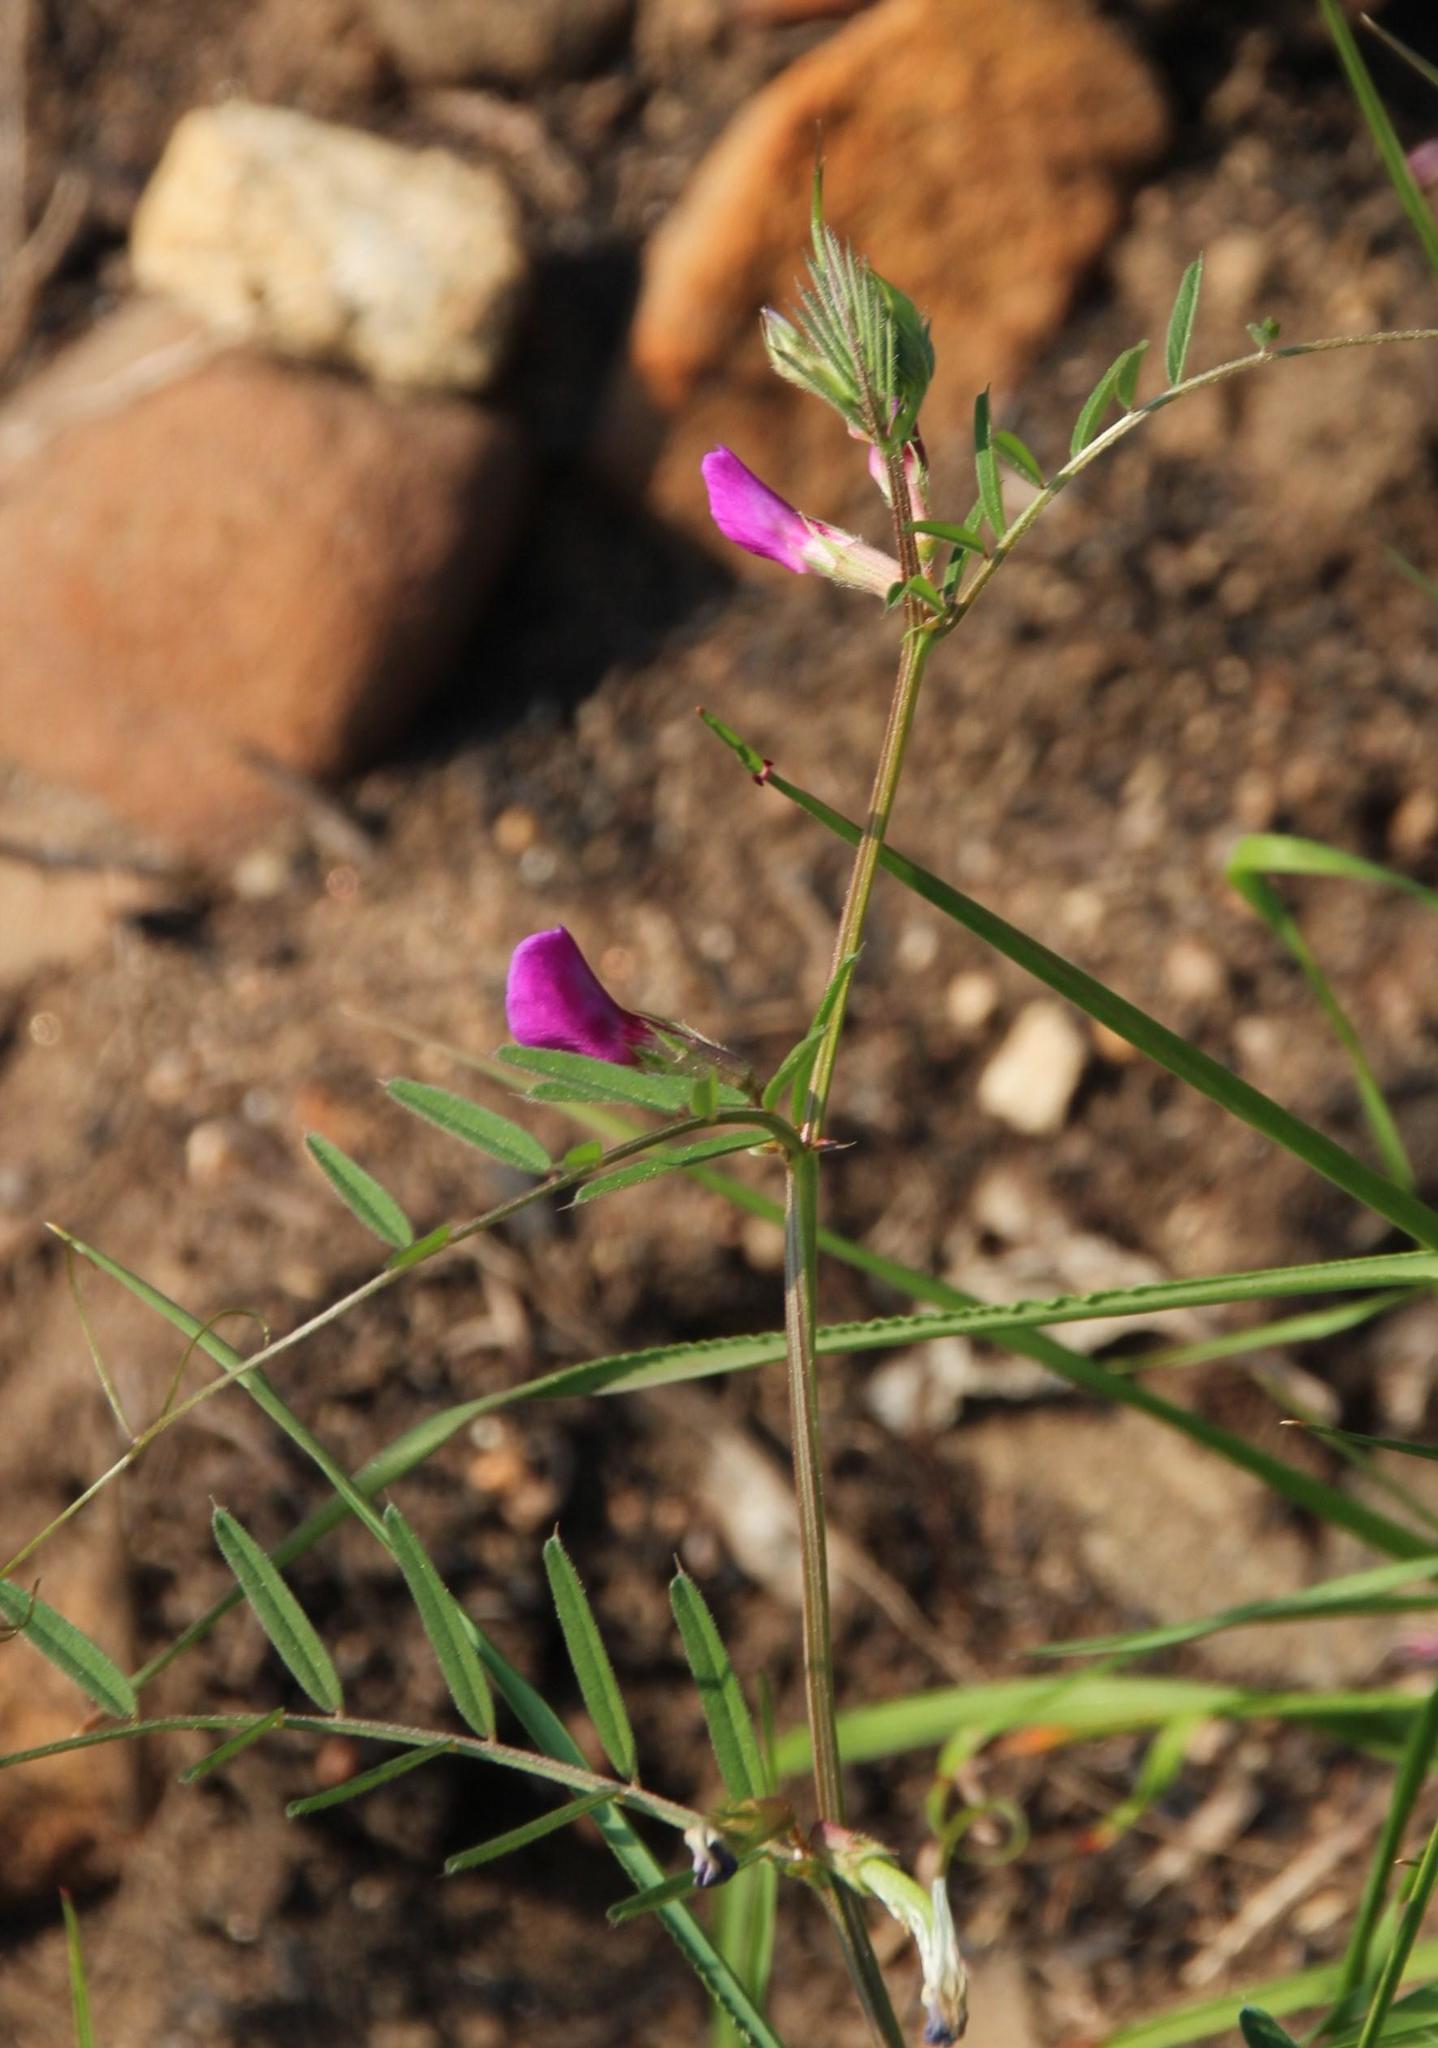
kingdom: Plantae
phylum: Tracheophyta
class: Magnoliopsida
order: Fabales
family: Fabaceae
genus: Vicia
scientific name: Vicia sativa
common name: Garden vetch
